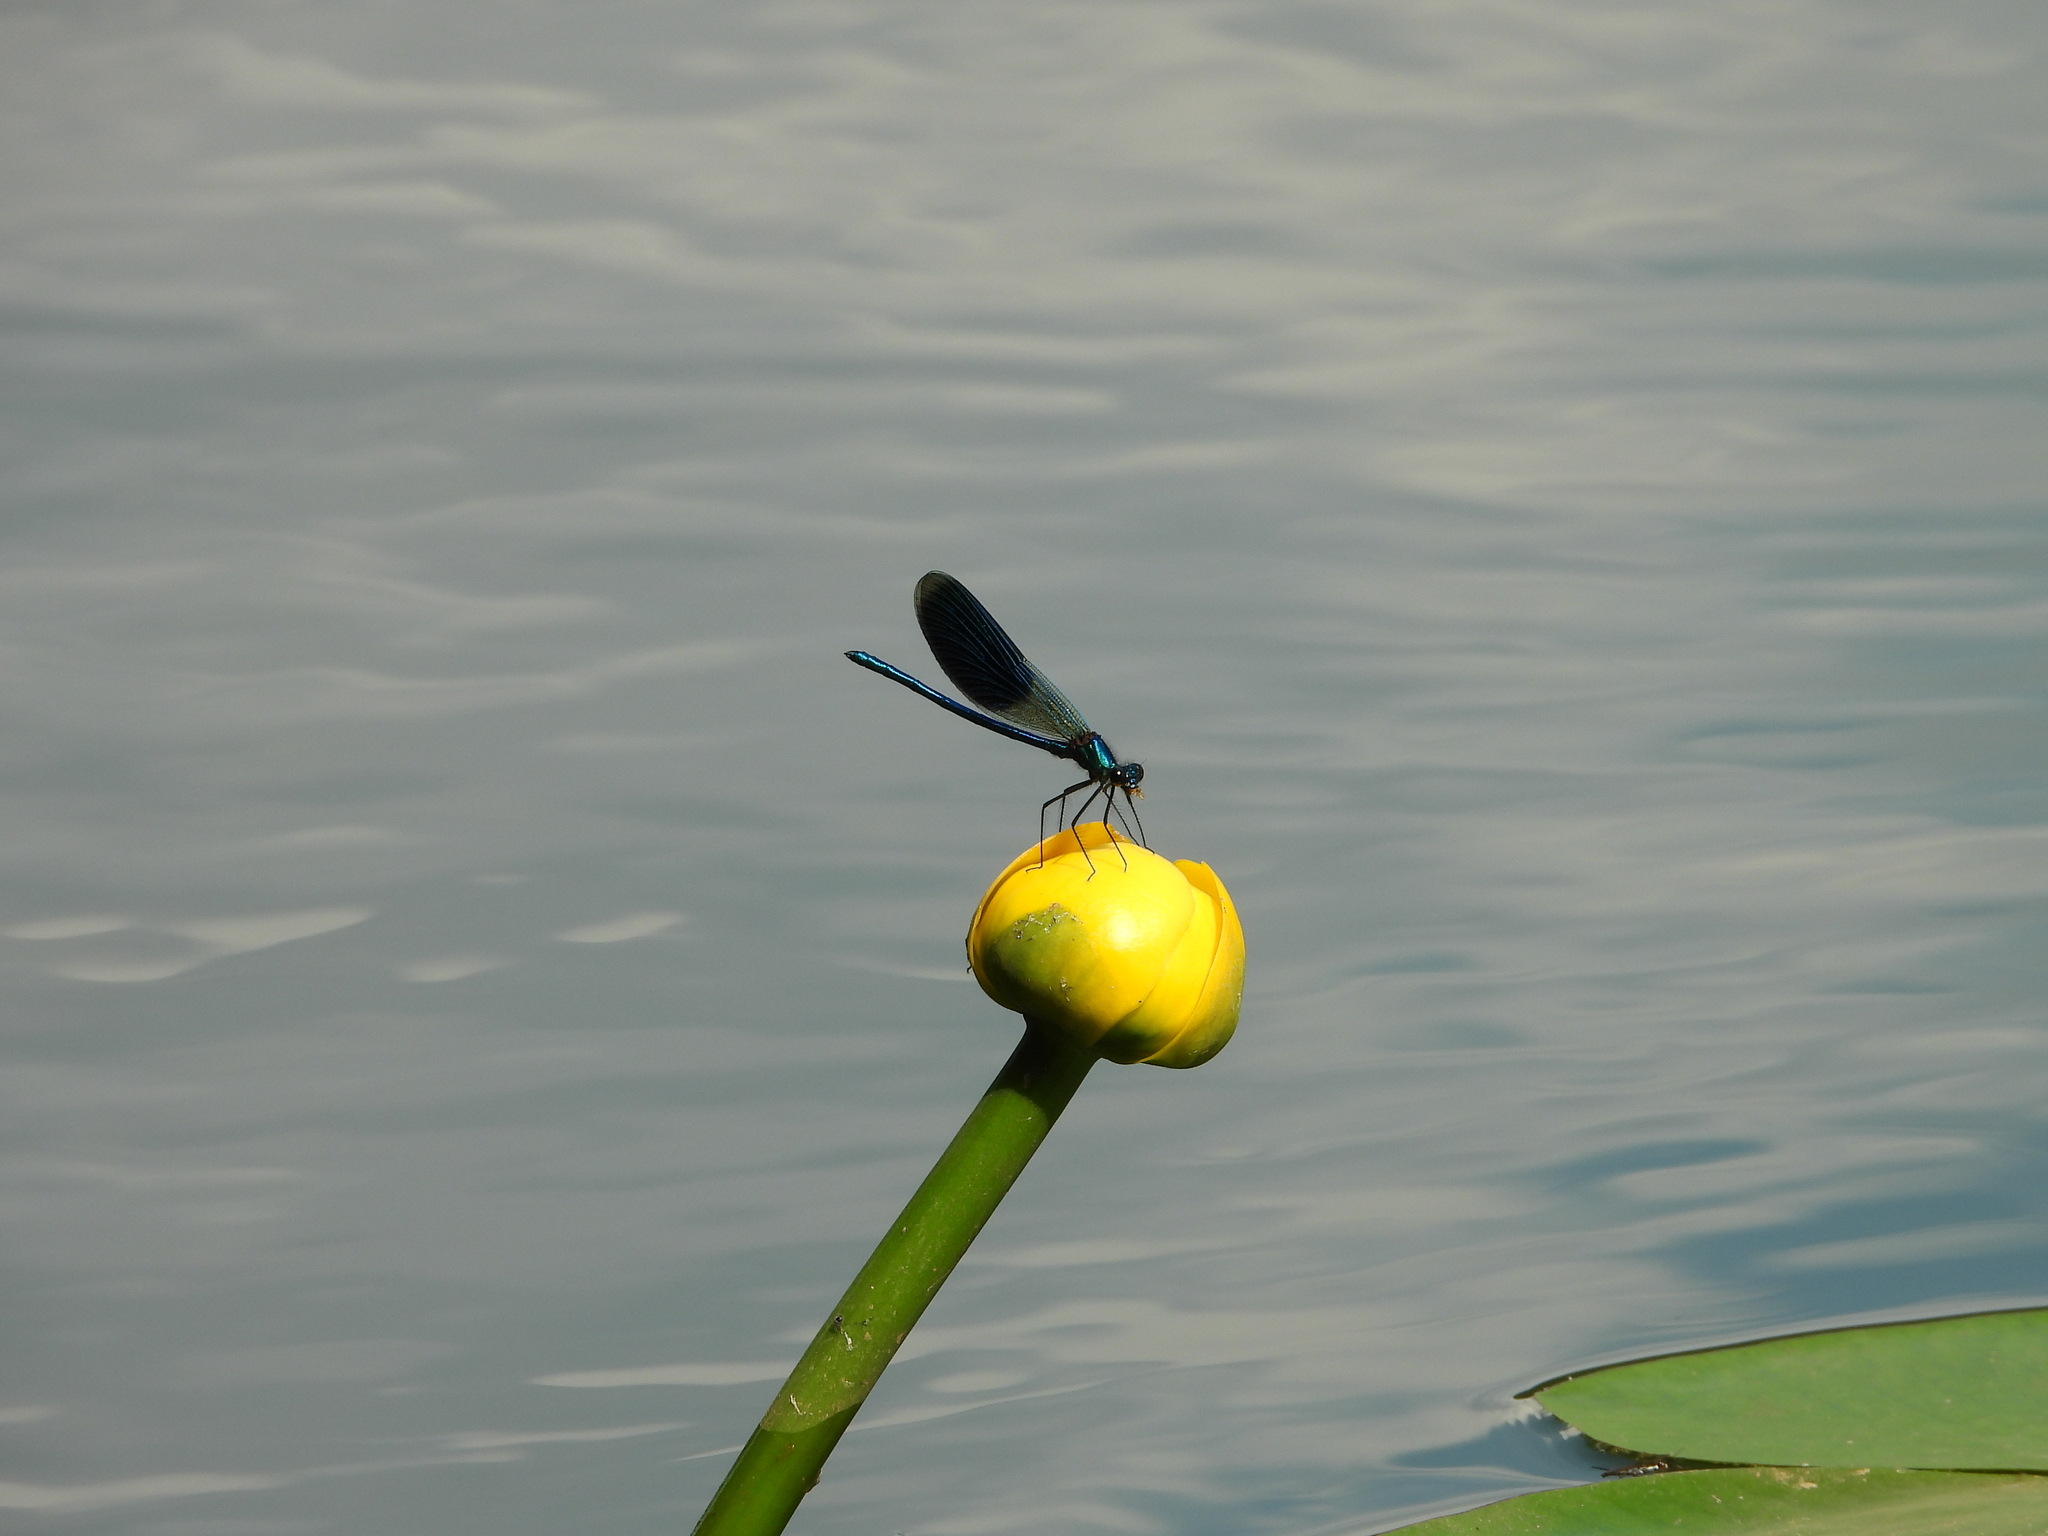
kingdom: Animalia
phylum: Arthropoda
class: Insecta
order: Odonata
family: Calopterygidae
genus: Calopteryx
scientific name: Calopteryx splendens
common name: Banded demoiselle
